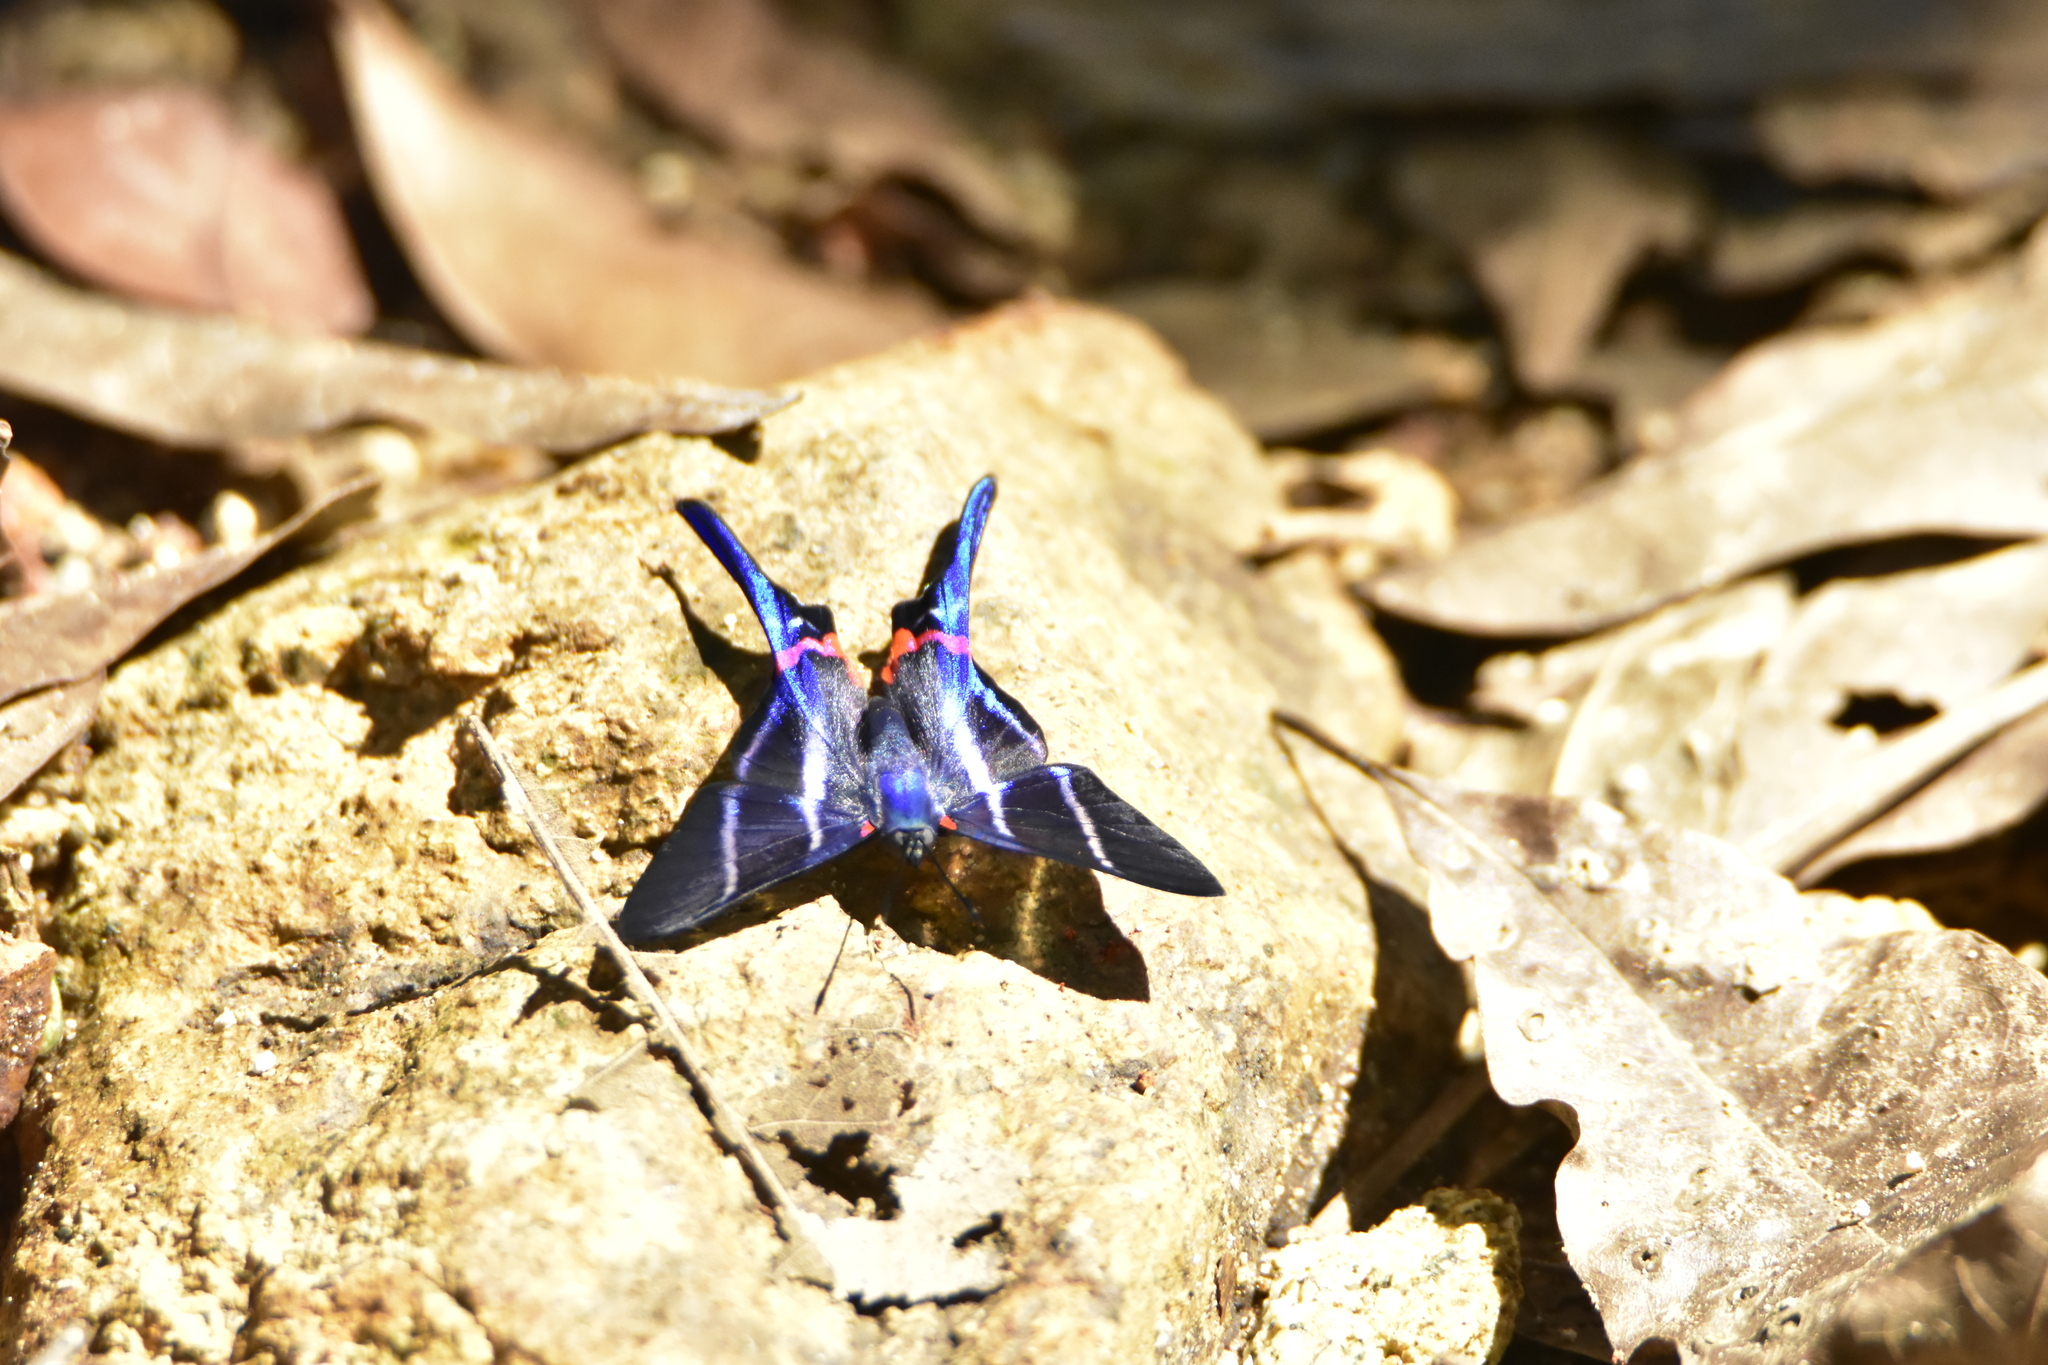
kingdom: Animalia
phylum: Arthropoda
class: Insecta
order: Lepidoptera
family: Riodinidae
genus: Rhetus
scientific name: Rhetus arcius
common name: Long-tailed metalmark
